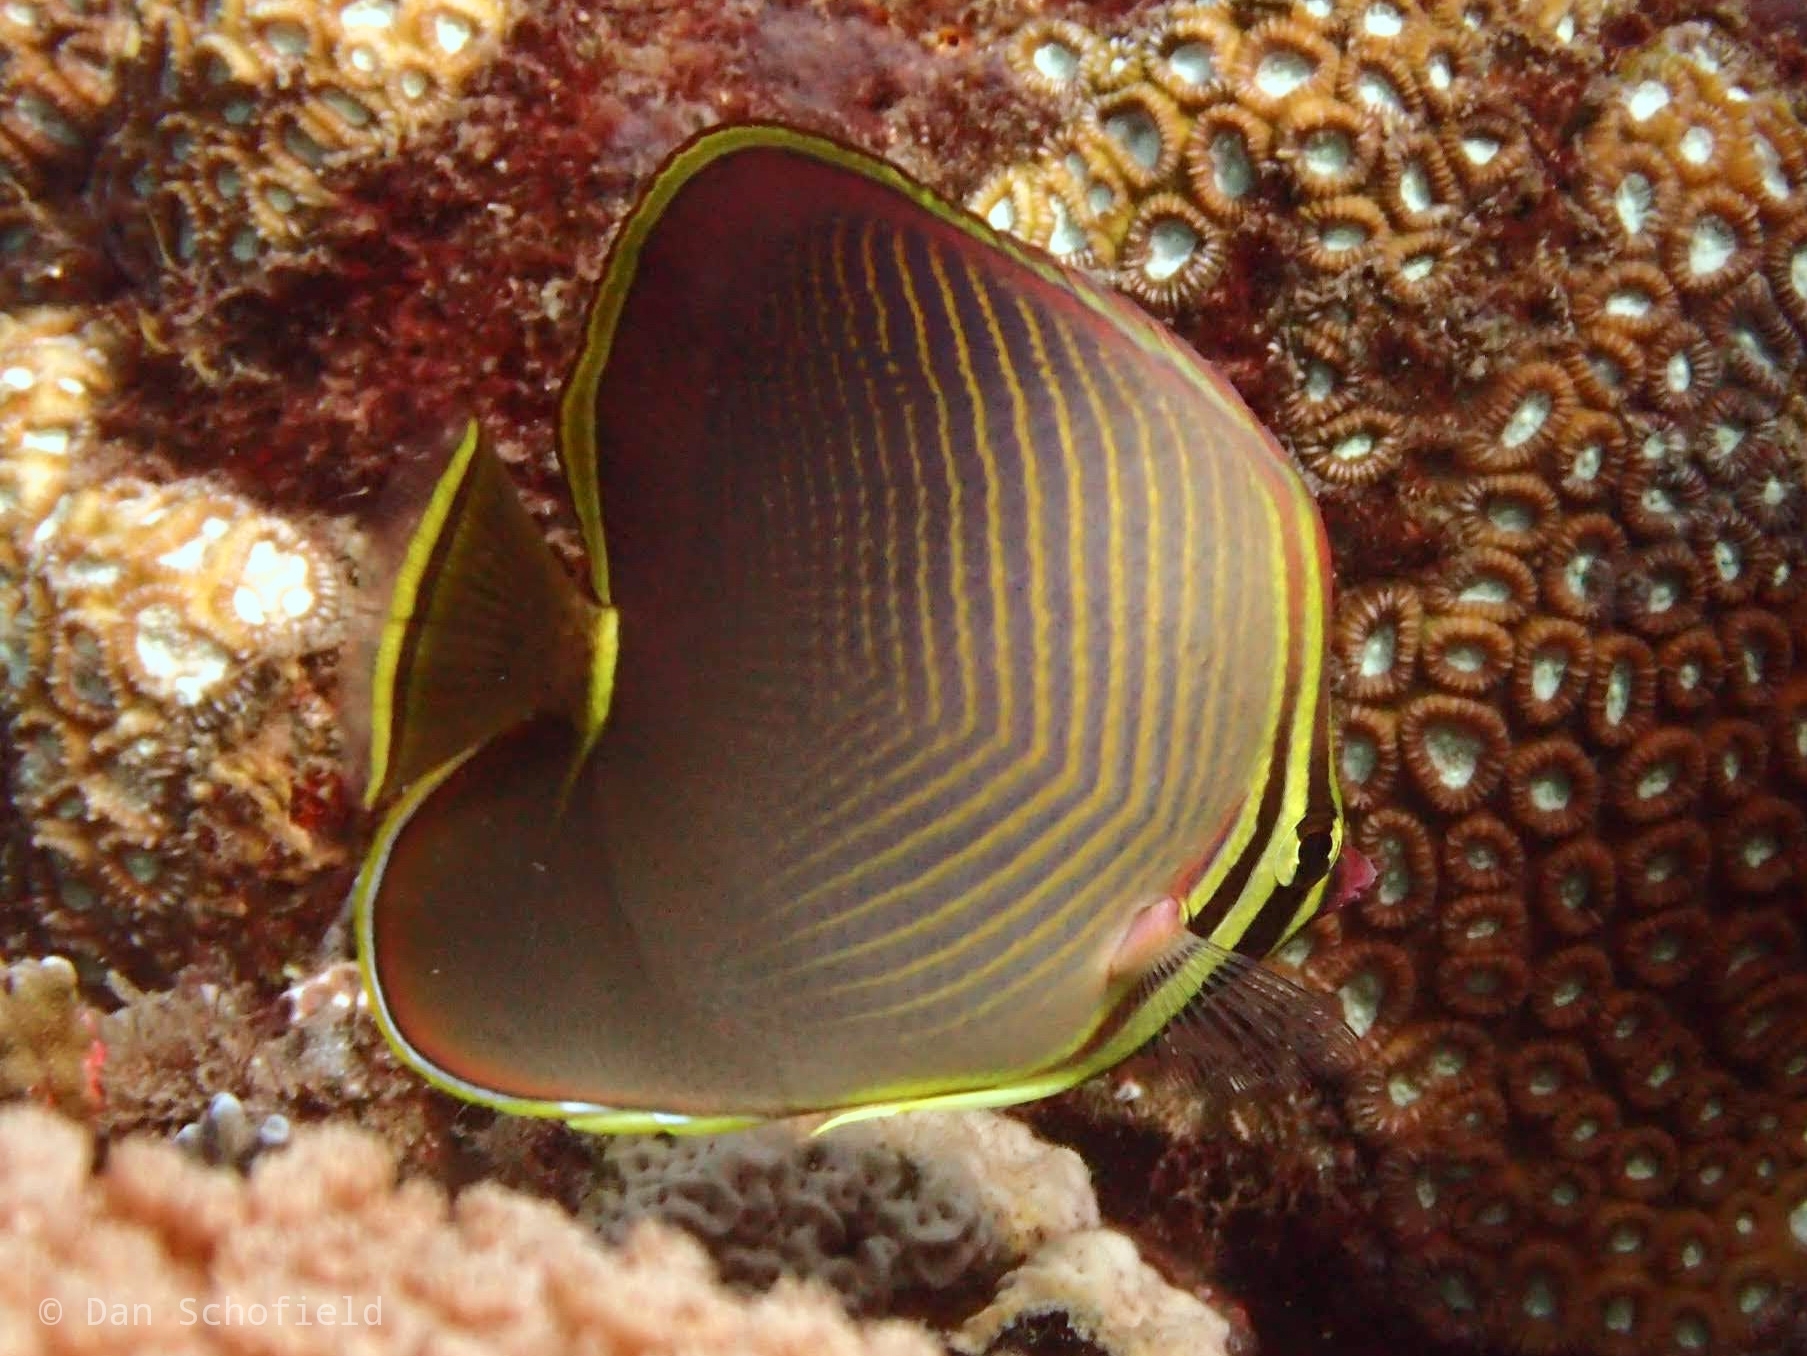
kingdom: Animalia
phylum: Chordata
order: Perciformes
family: Chaetodontidae
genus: Chaetodon
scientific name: Chaetodon baronessa
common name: Triangular butterflyfish
